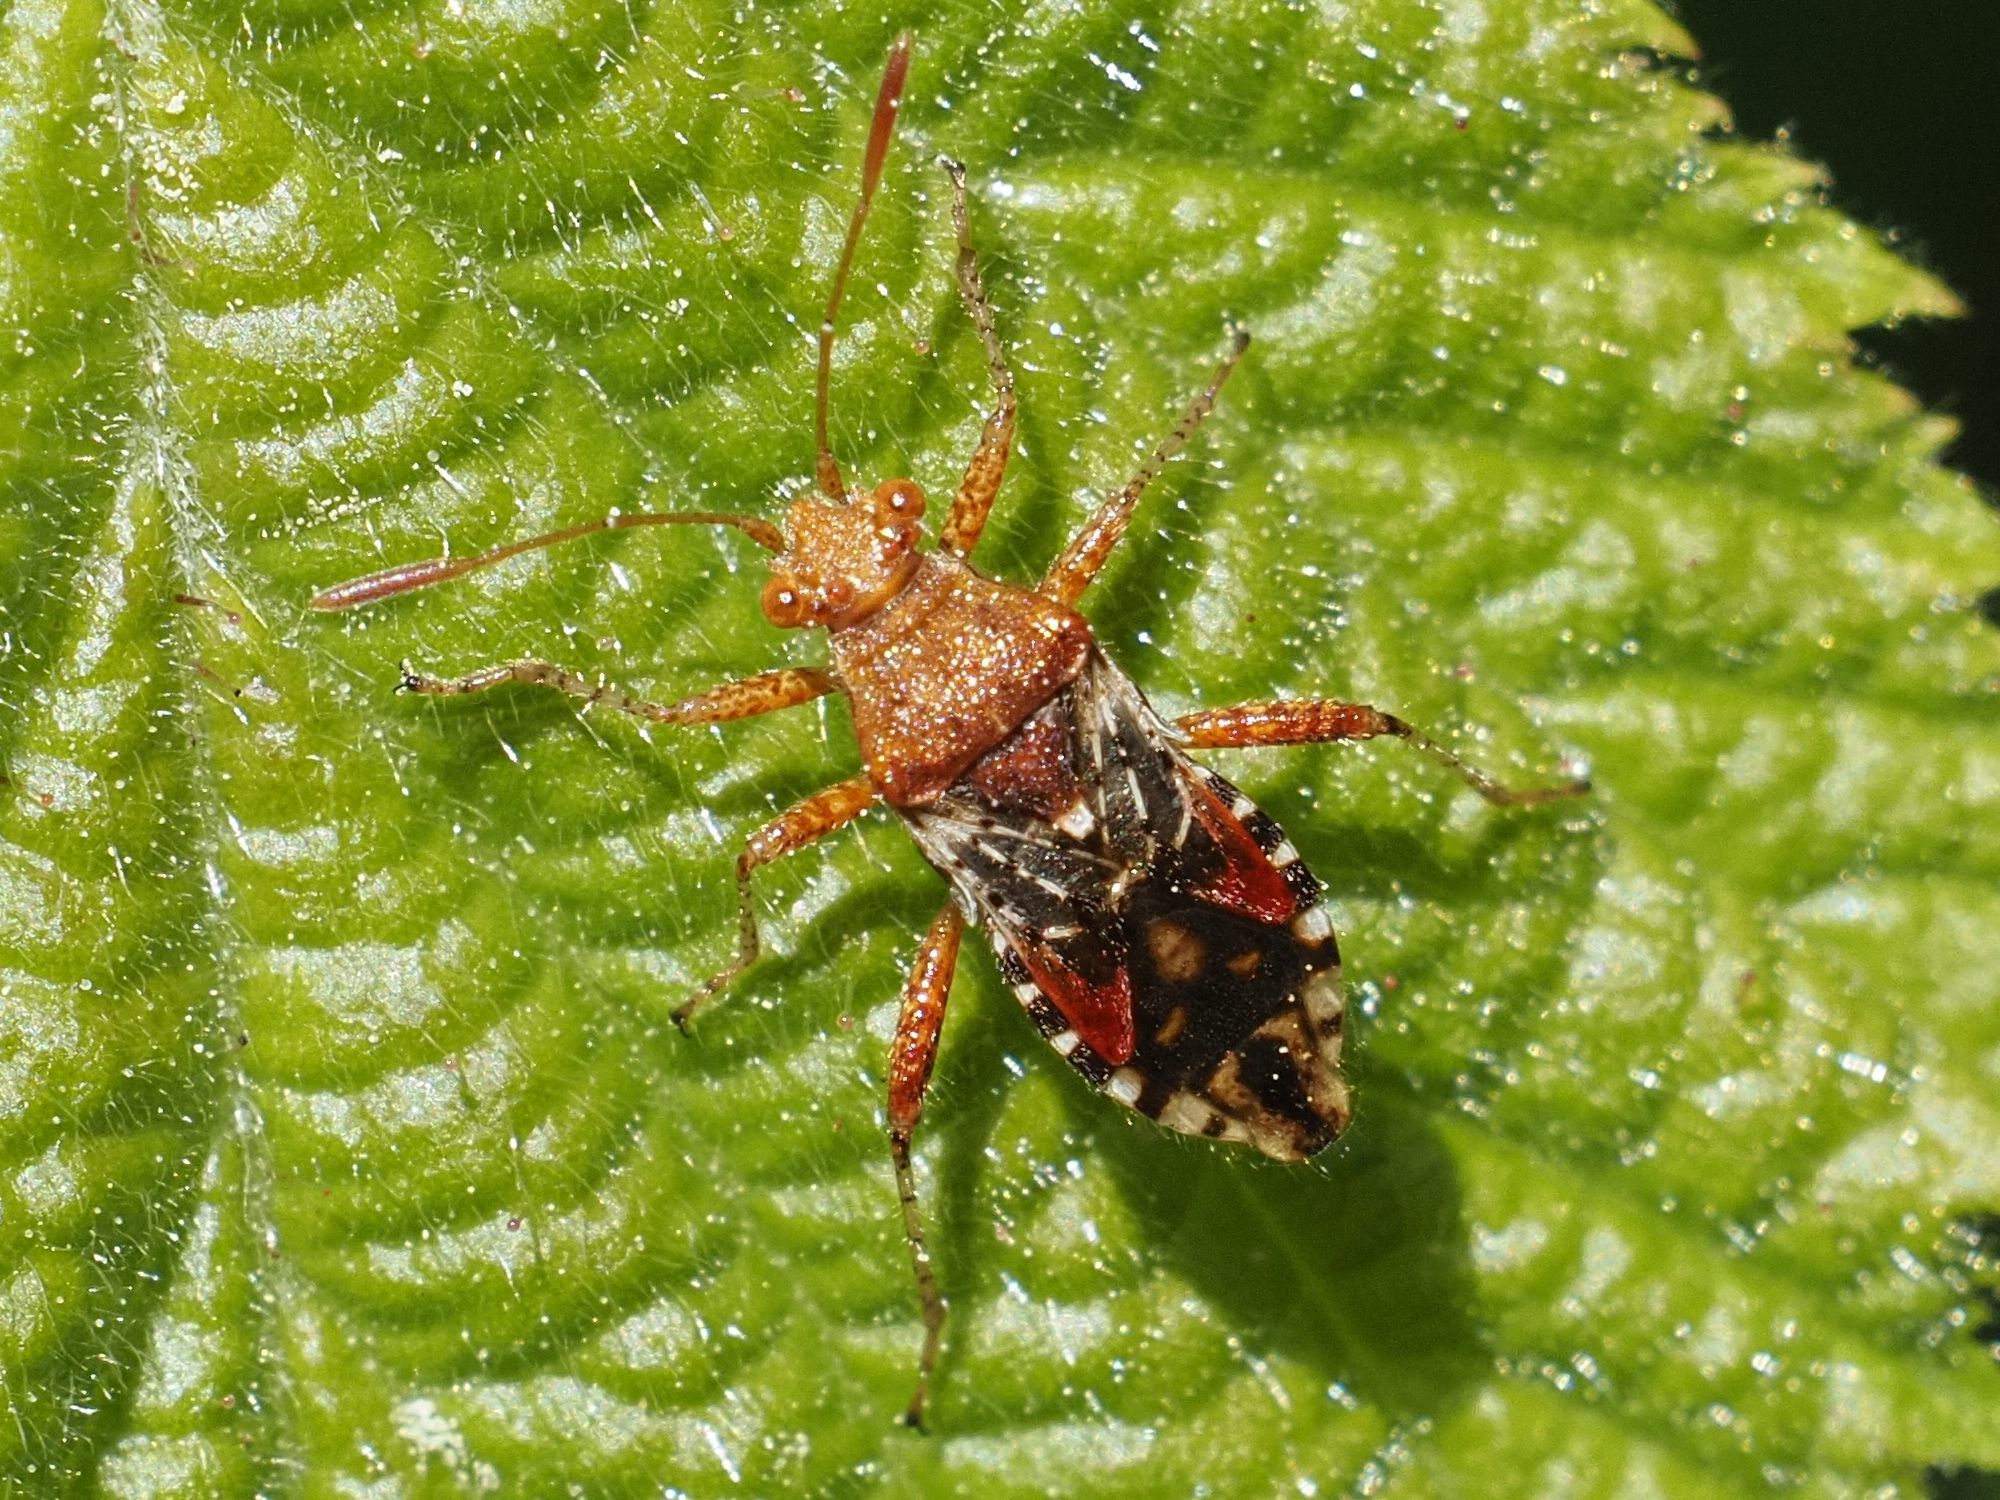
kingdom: Animalia
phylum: Arthropoda
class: Insecta
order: Hemiptera
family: Rhopalidae
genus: Rhopalus
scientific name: Rhopalus subrufus
